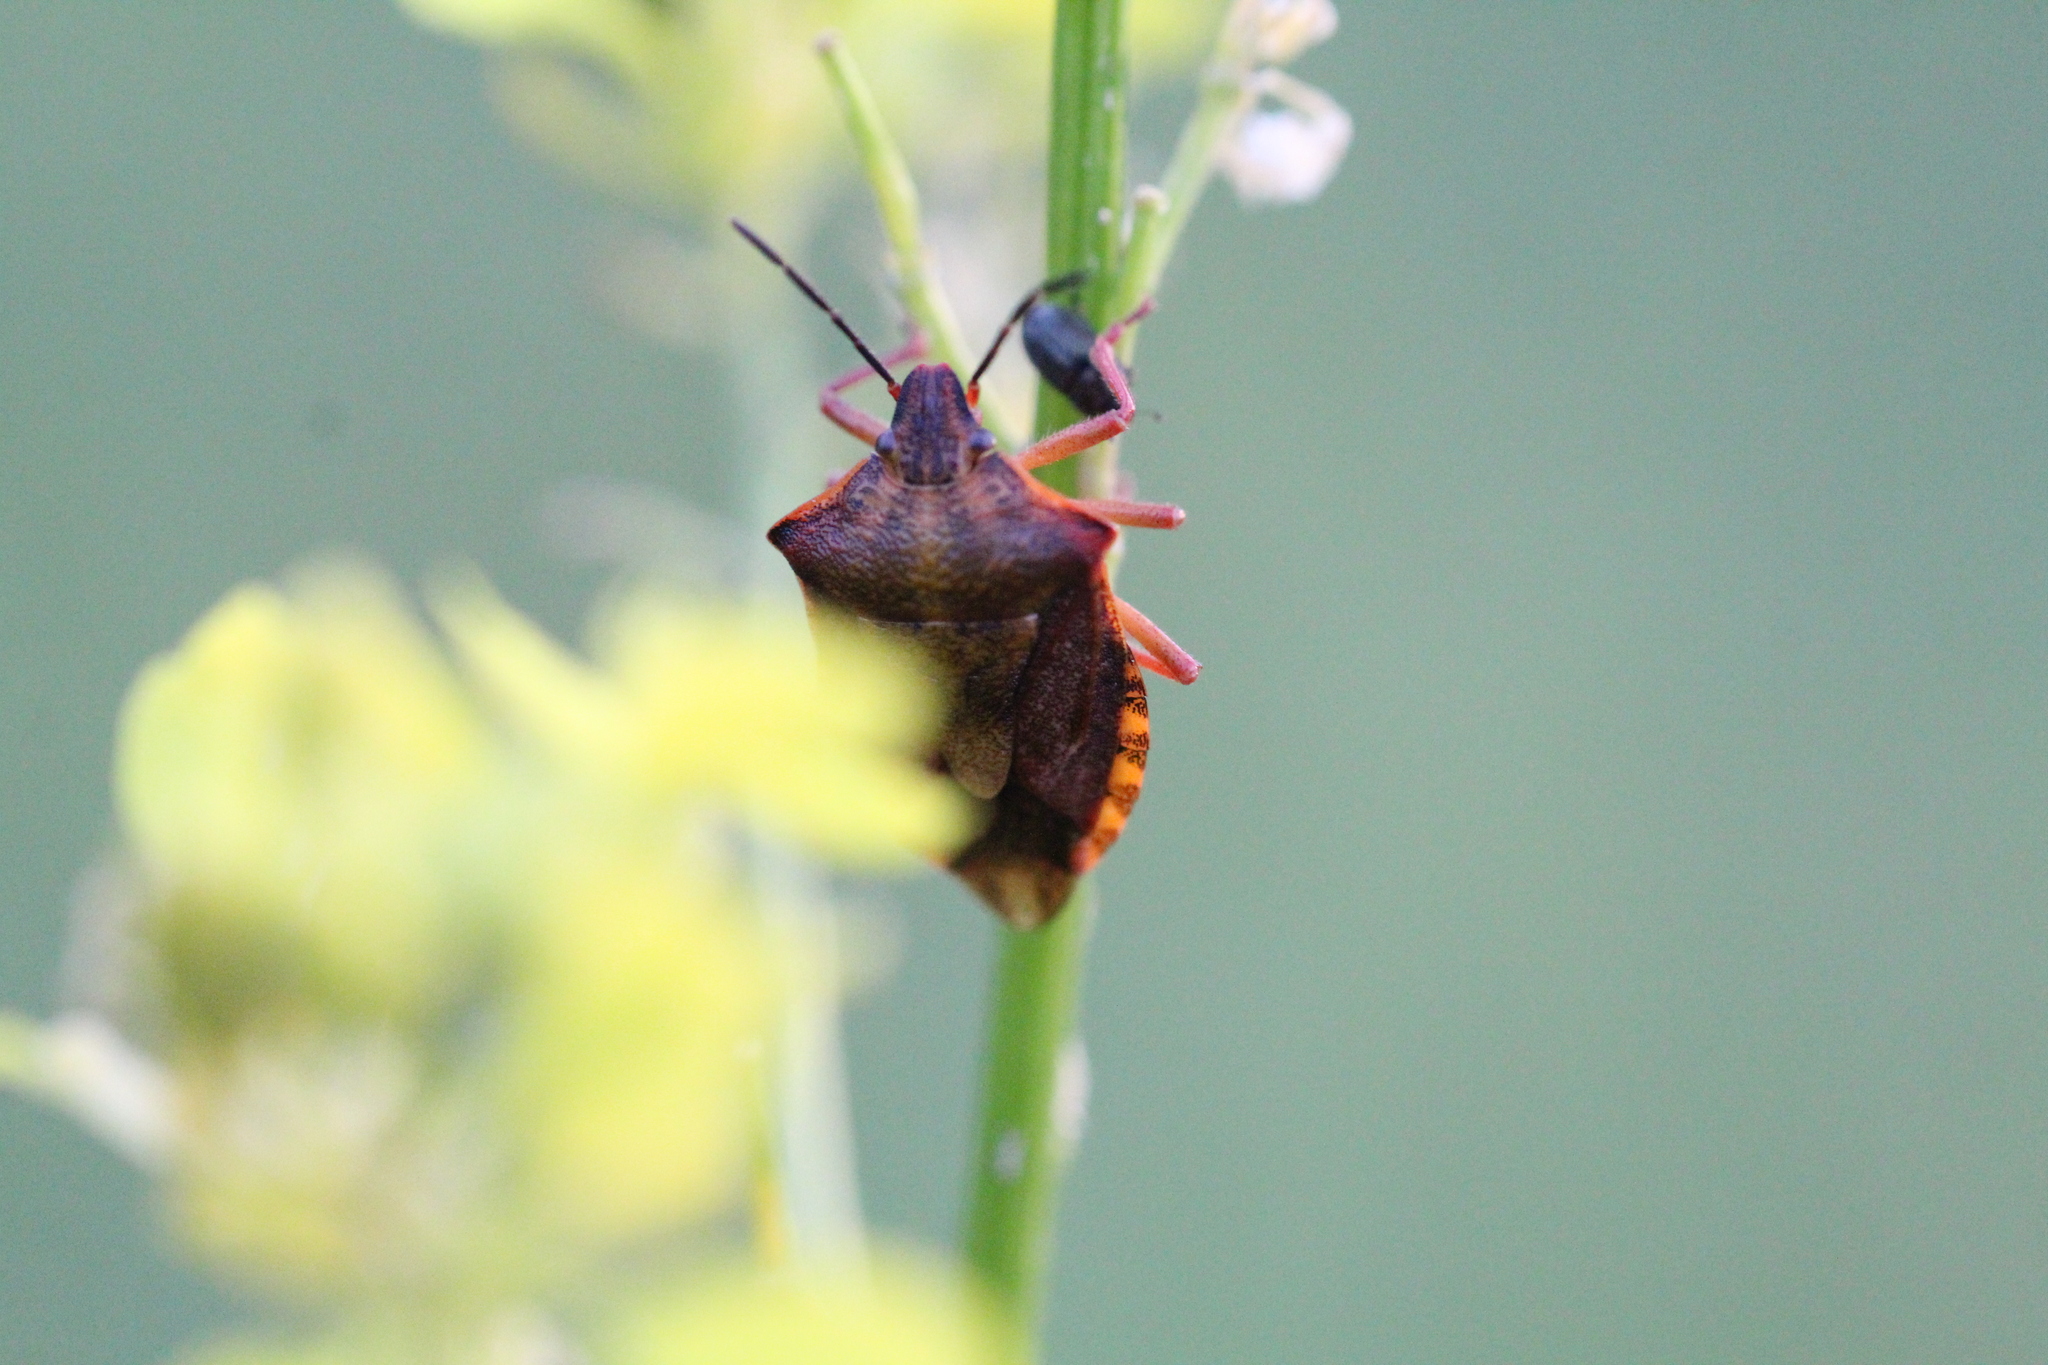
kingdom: Animalia
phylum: Arthropoda
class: Insecta
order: Hemiptera
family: Pentatomidae
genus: Carpocoris
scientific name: Carpocoris purpureipennis
